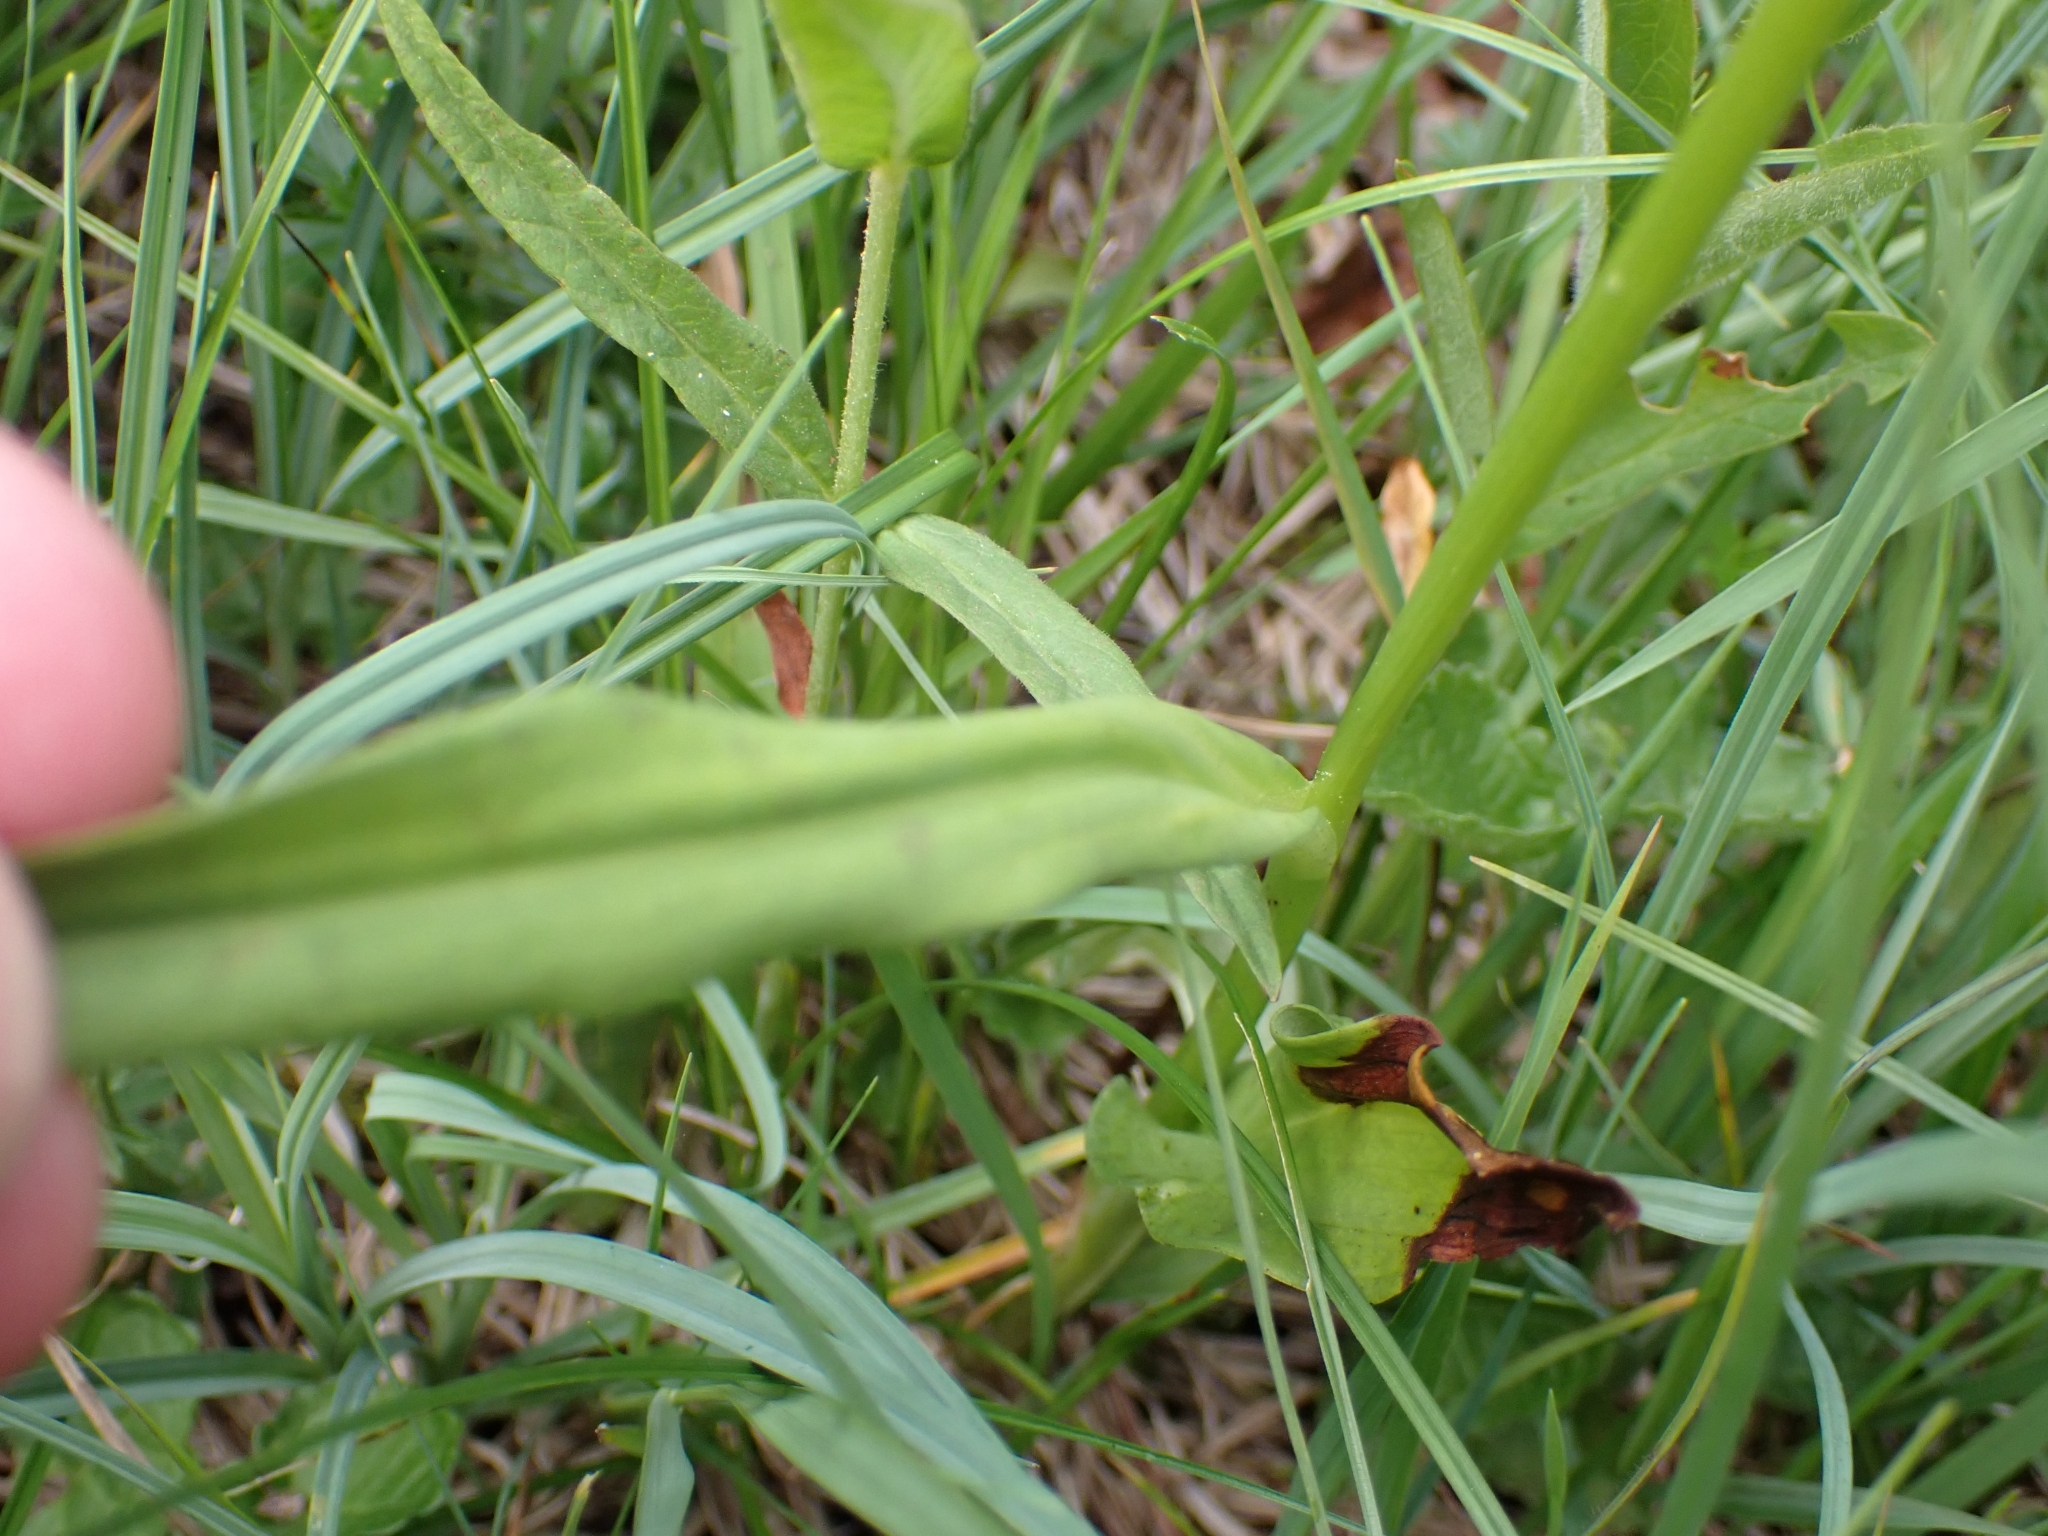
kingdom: Plantae
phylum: Tracheophyta
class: Liliopsida
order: Asparagales
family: Orchidaceae
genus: Dactylorhiza
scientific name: Dactylorhiza maculata
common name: Heath spotted-orchid
